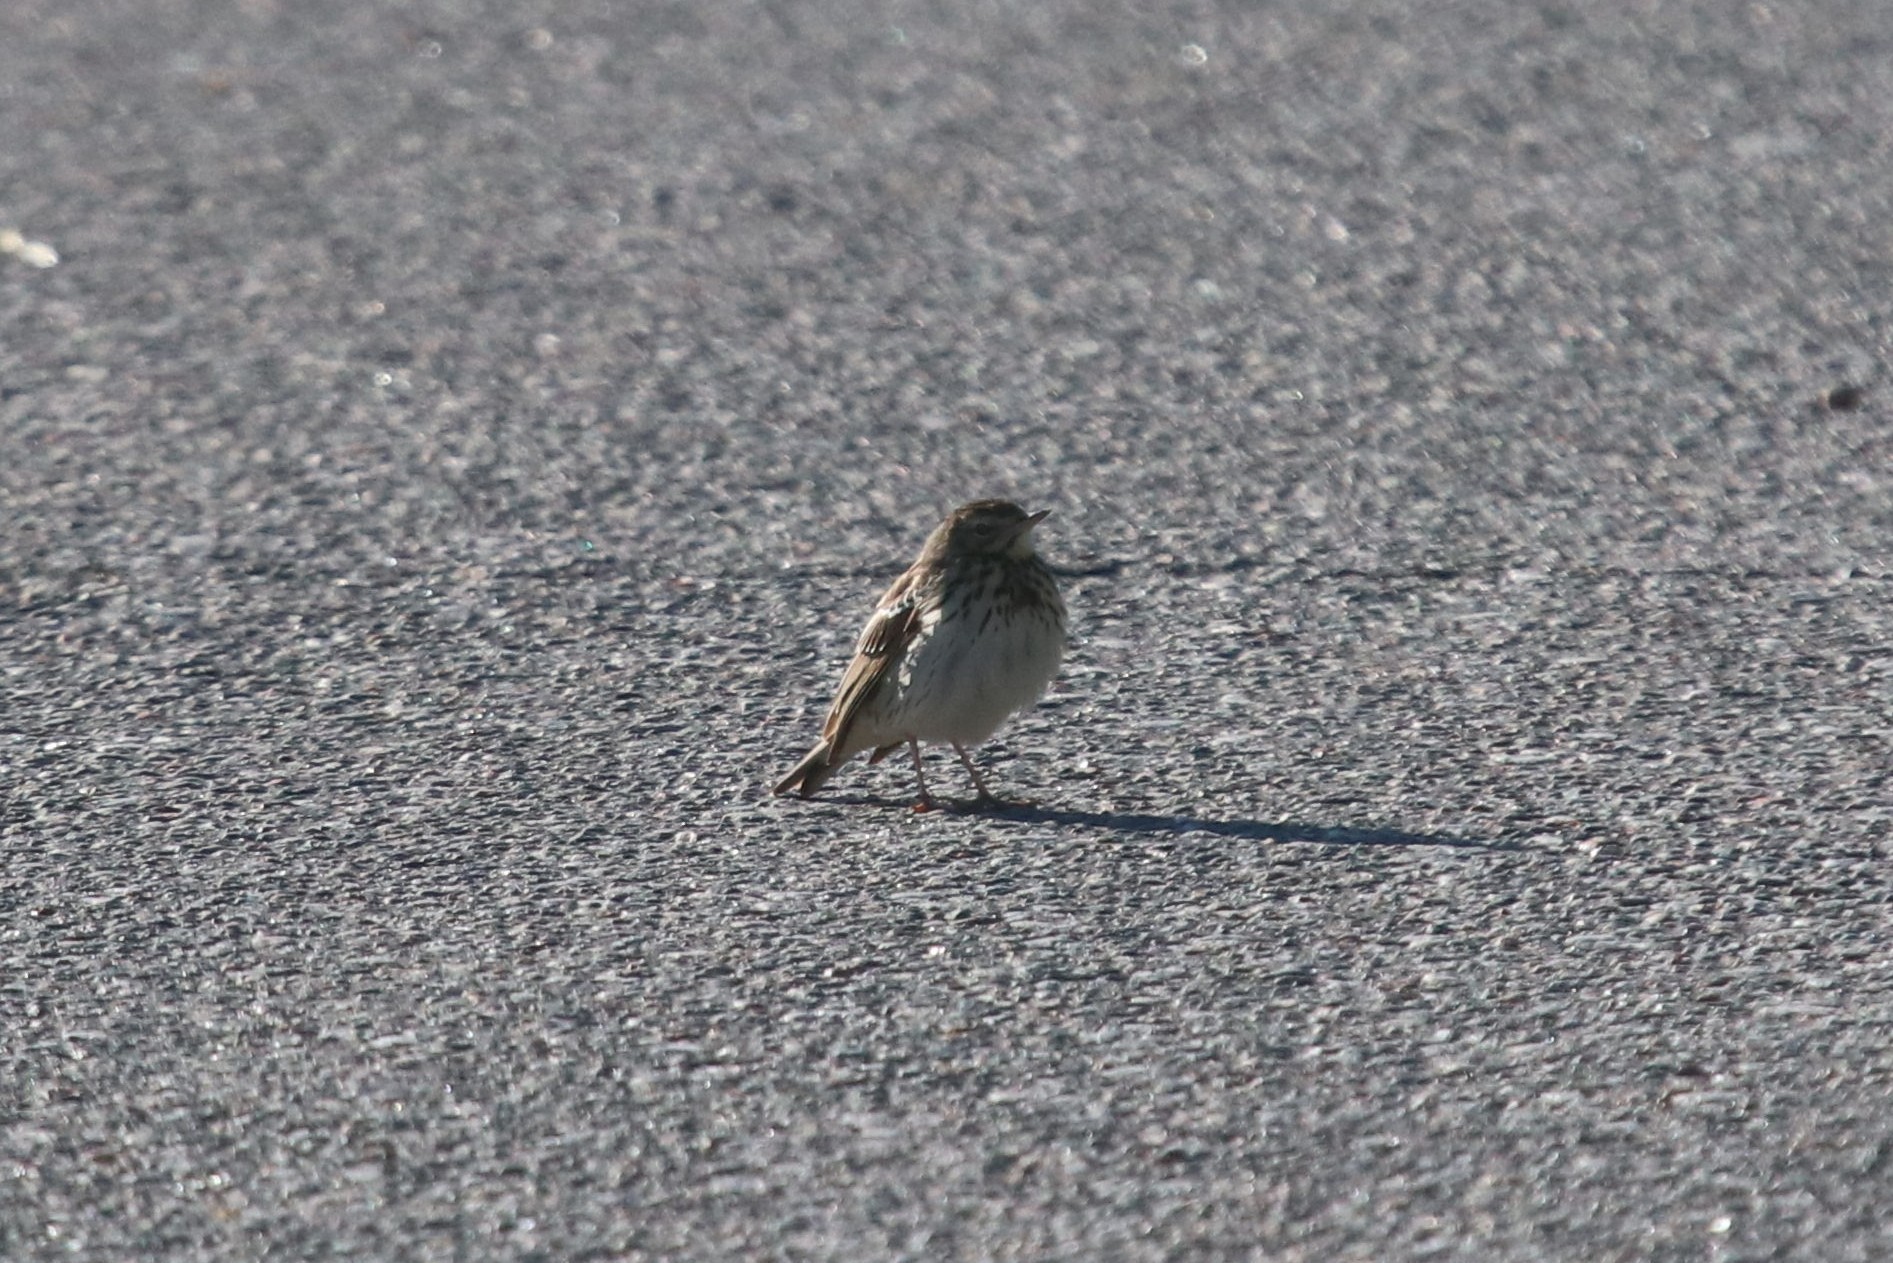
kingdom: Animalia
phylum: Chordata
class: Aves
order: Passeriformes
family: Motacillidae
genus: Anthus
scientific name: Anthus trivialis
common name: Tree pipit
